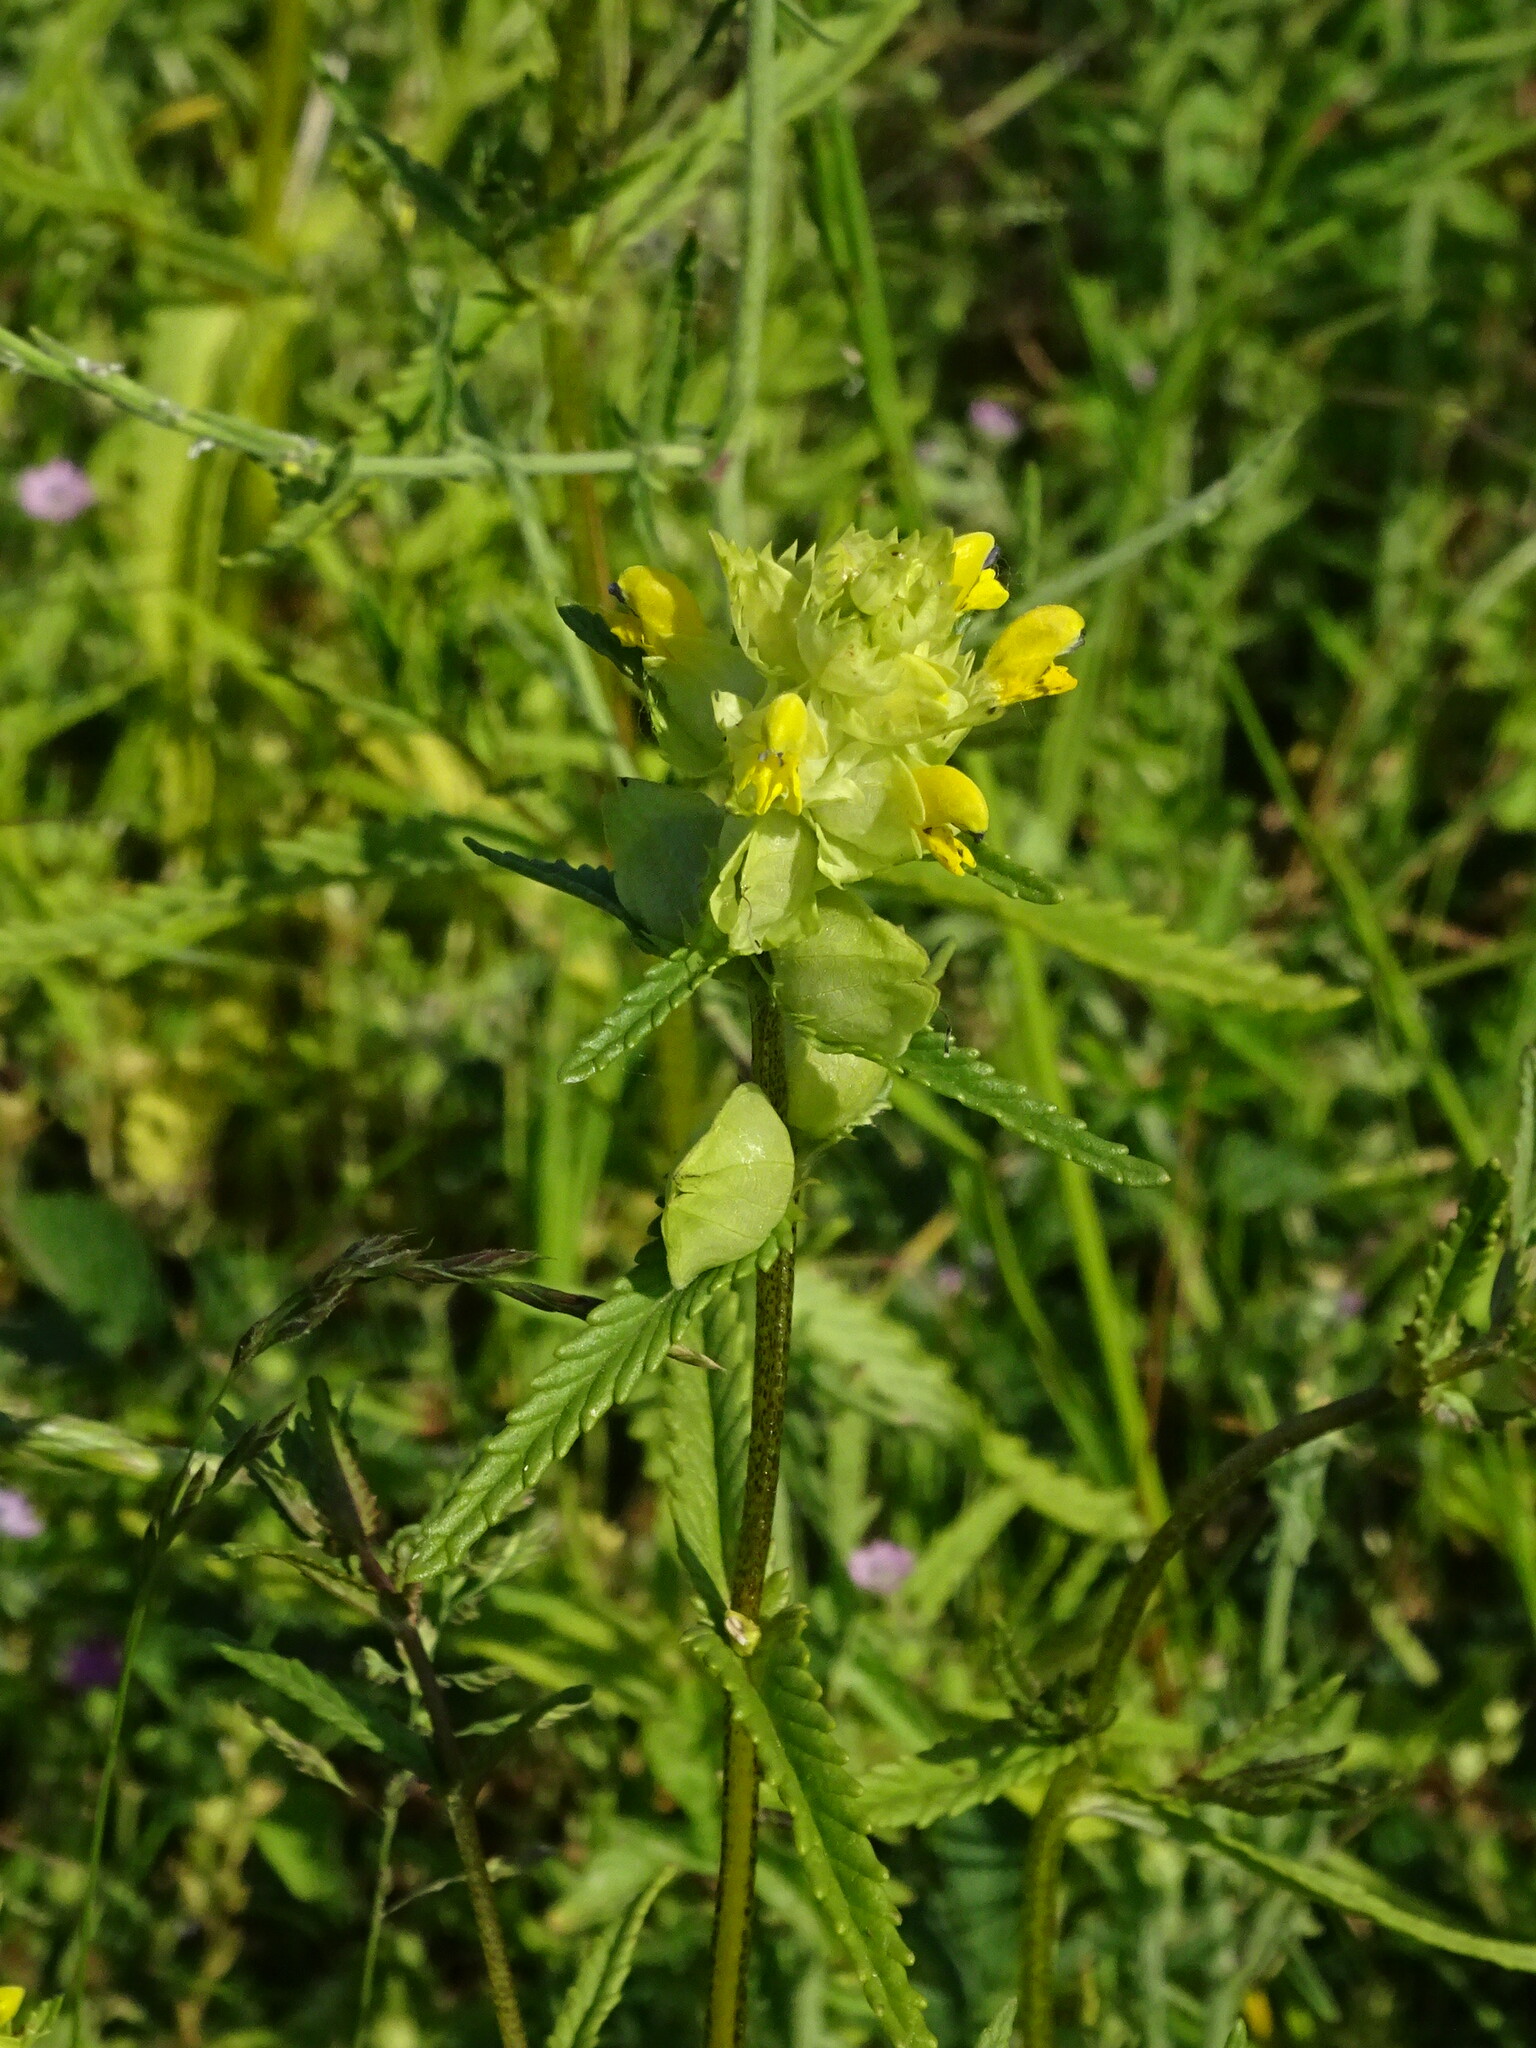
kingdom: Plantae
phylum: Tracheophyta
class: Magnoliopsida
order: Lamiales
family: Orobanchaceae
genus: Rhinanthus
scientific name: Rhinanthus minor
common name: Yellow-rattle
